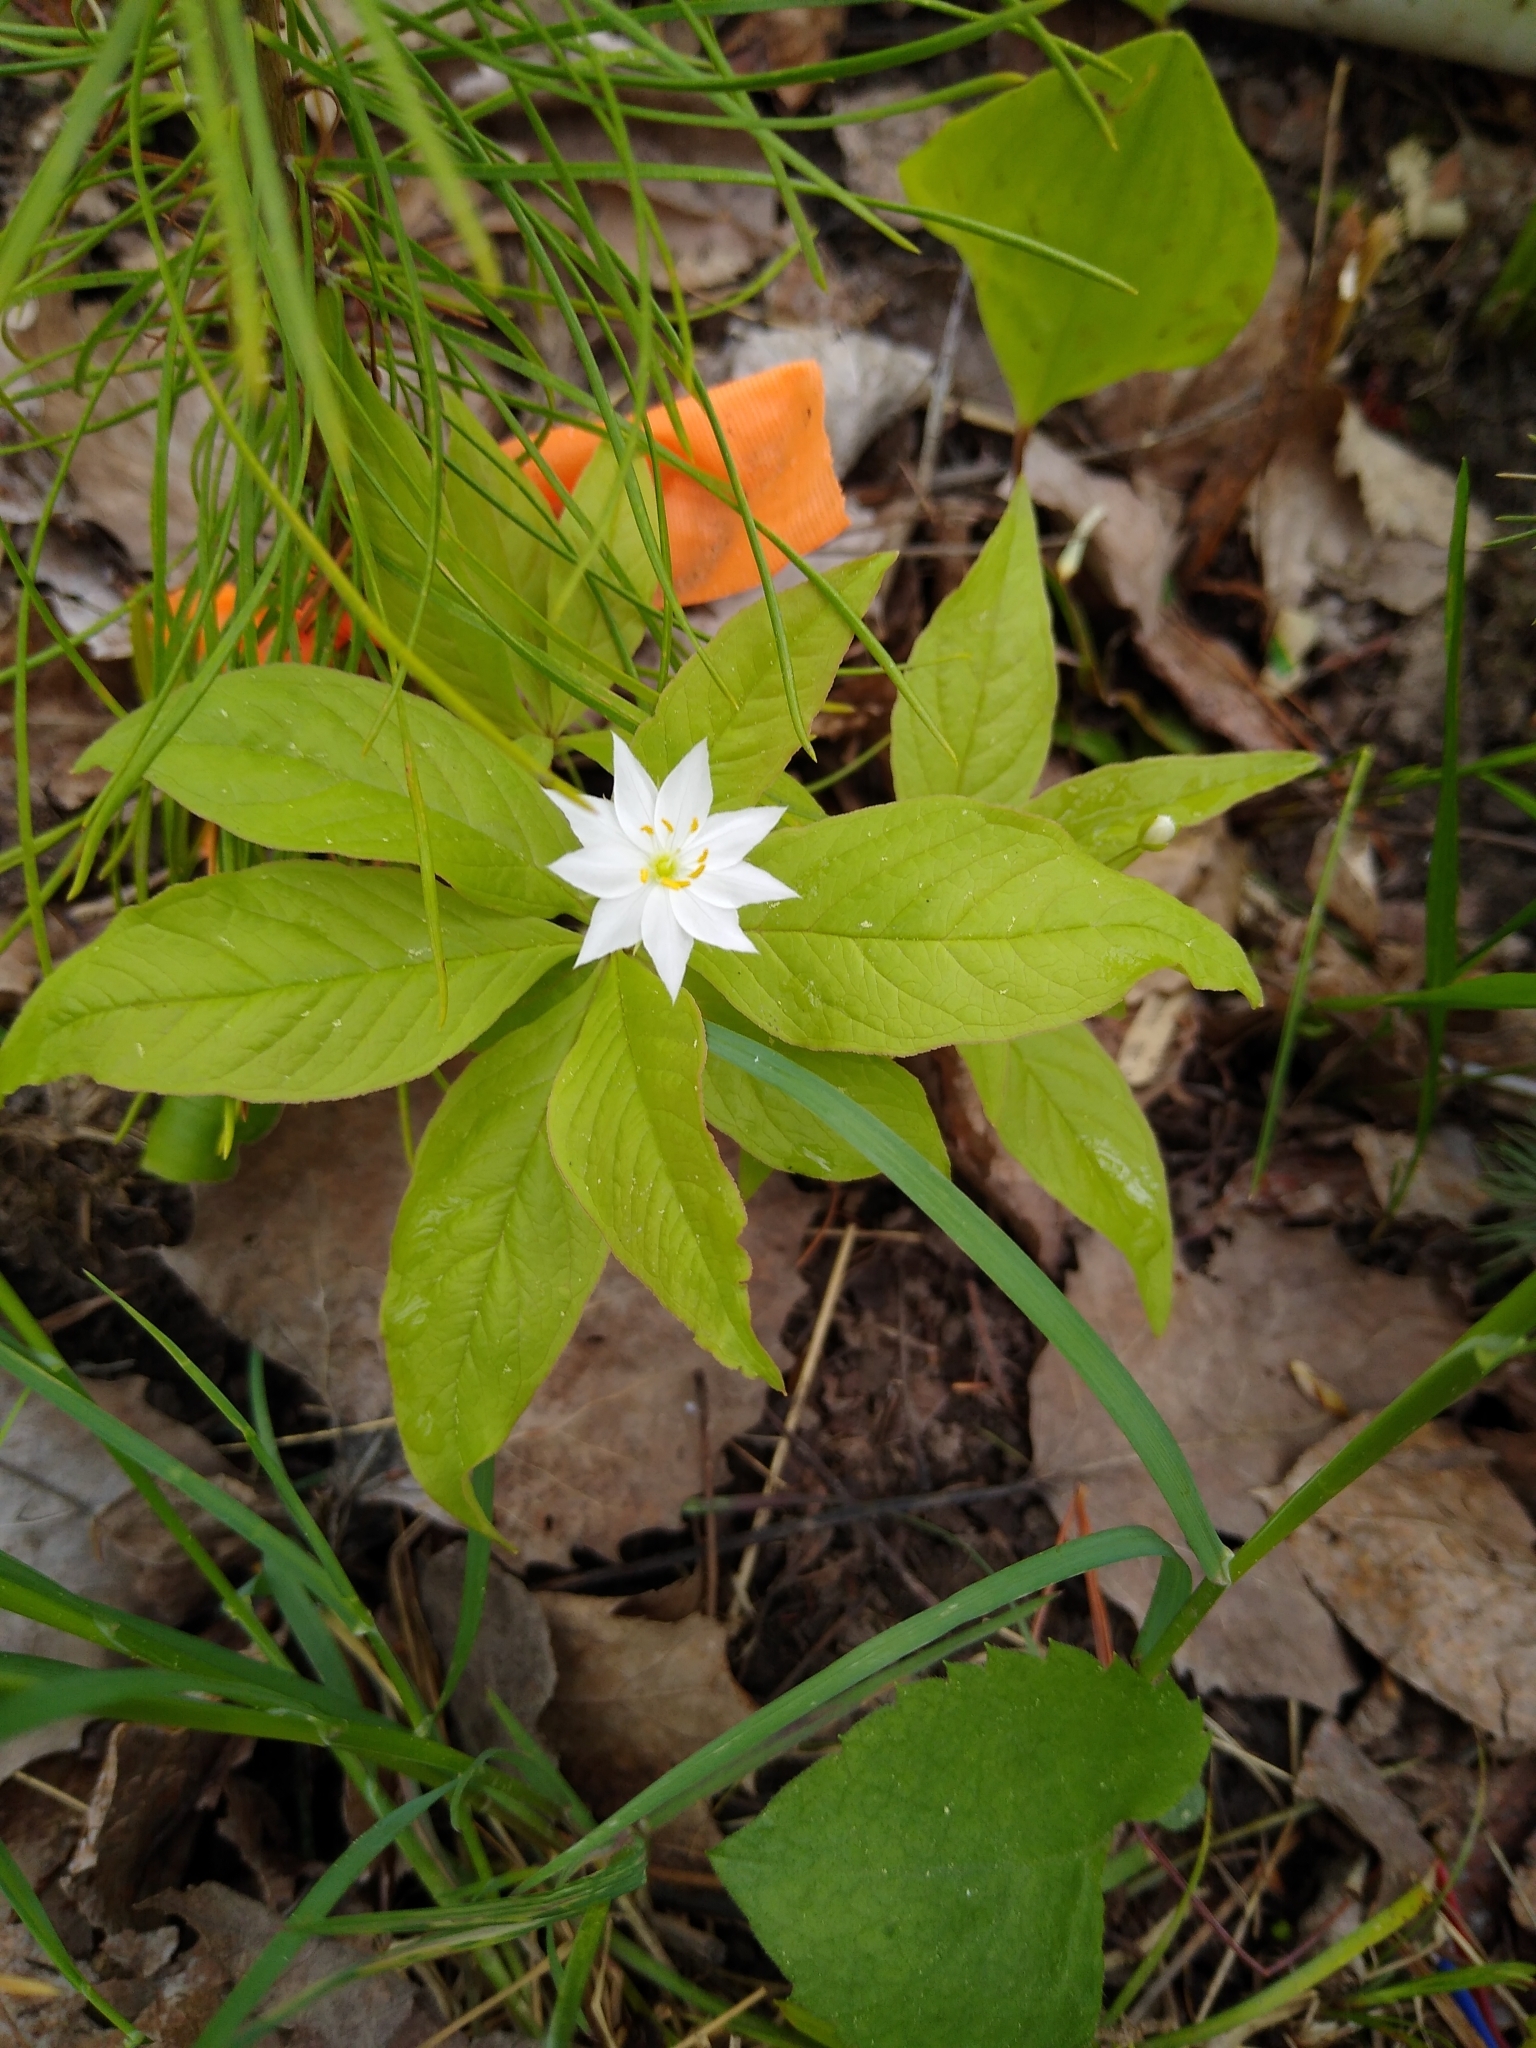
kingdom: Plantae
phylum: Tracheophyta
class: Magnoliopsida
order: Ericales
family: Primulaceae
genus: Lysimachia
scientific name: Lysimachia borealis
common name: American starflower
